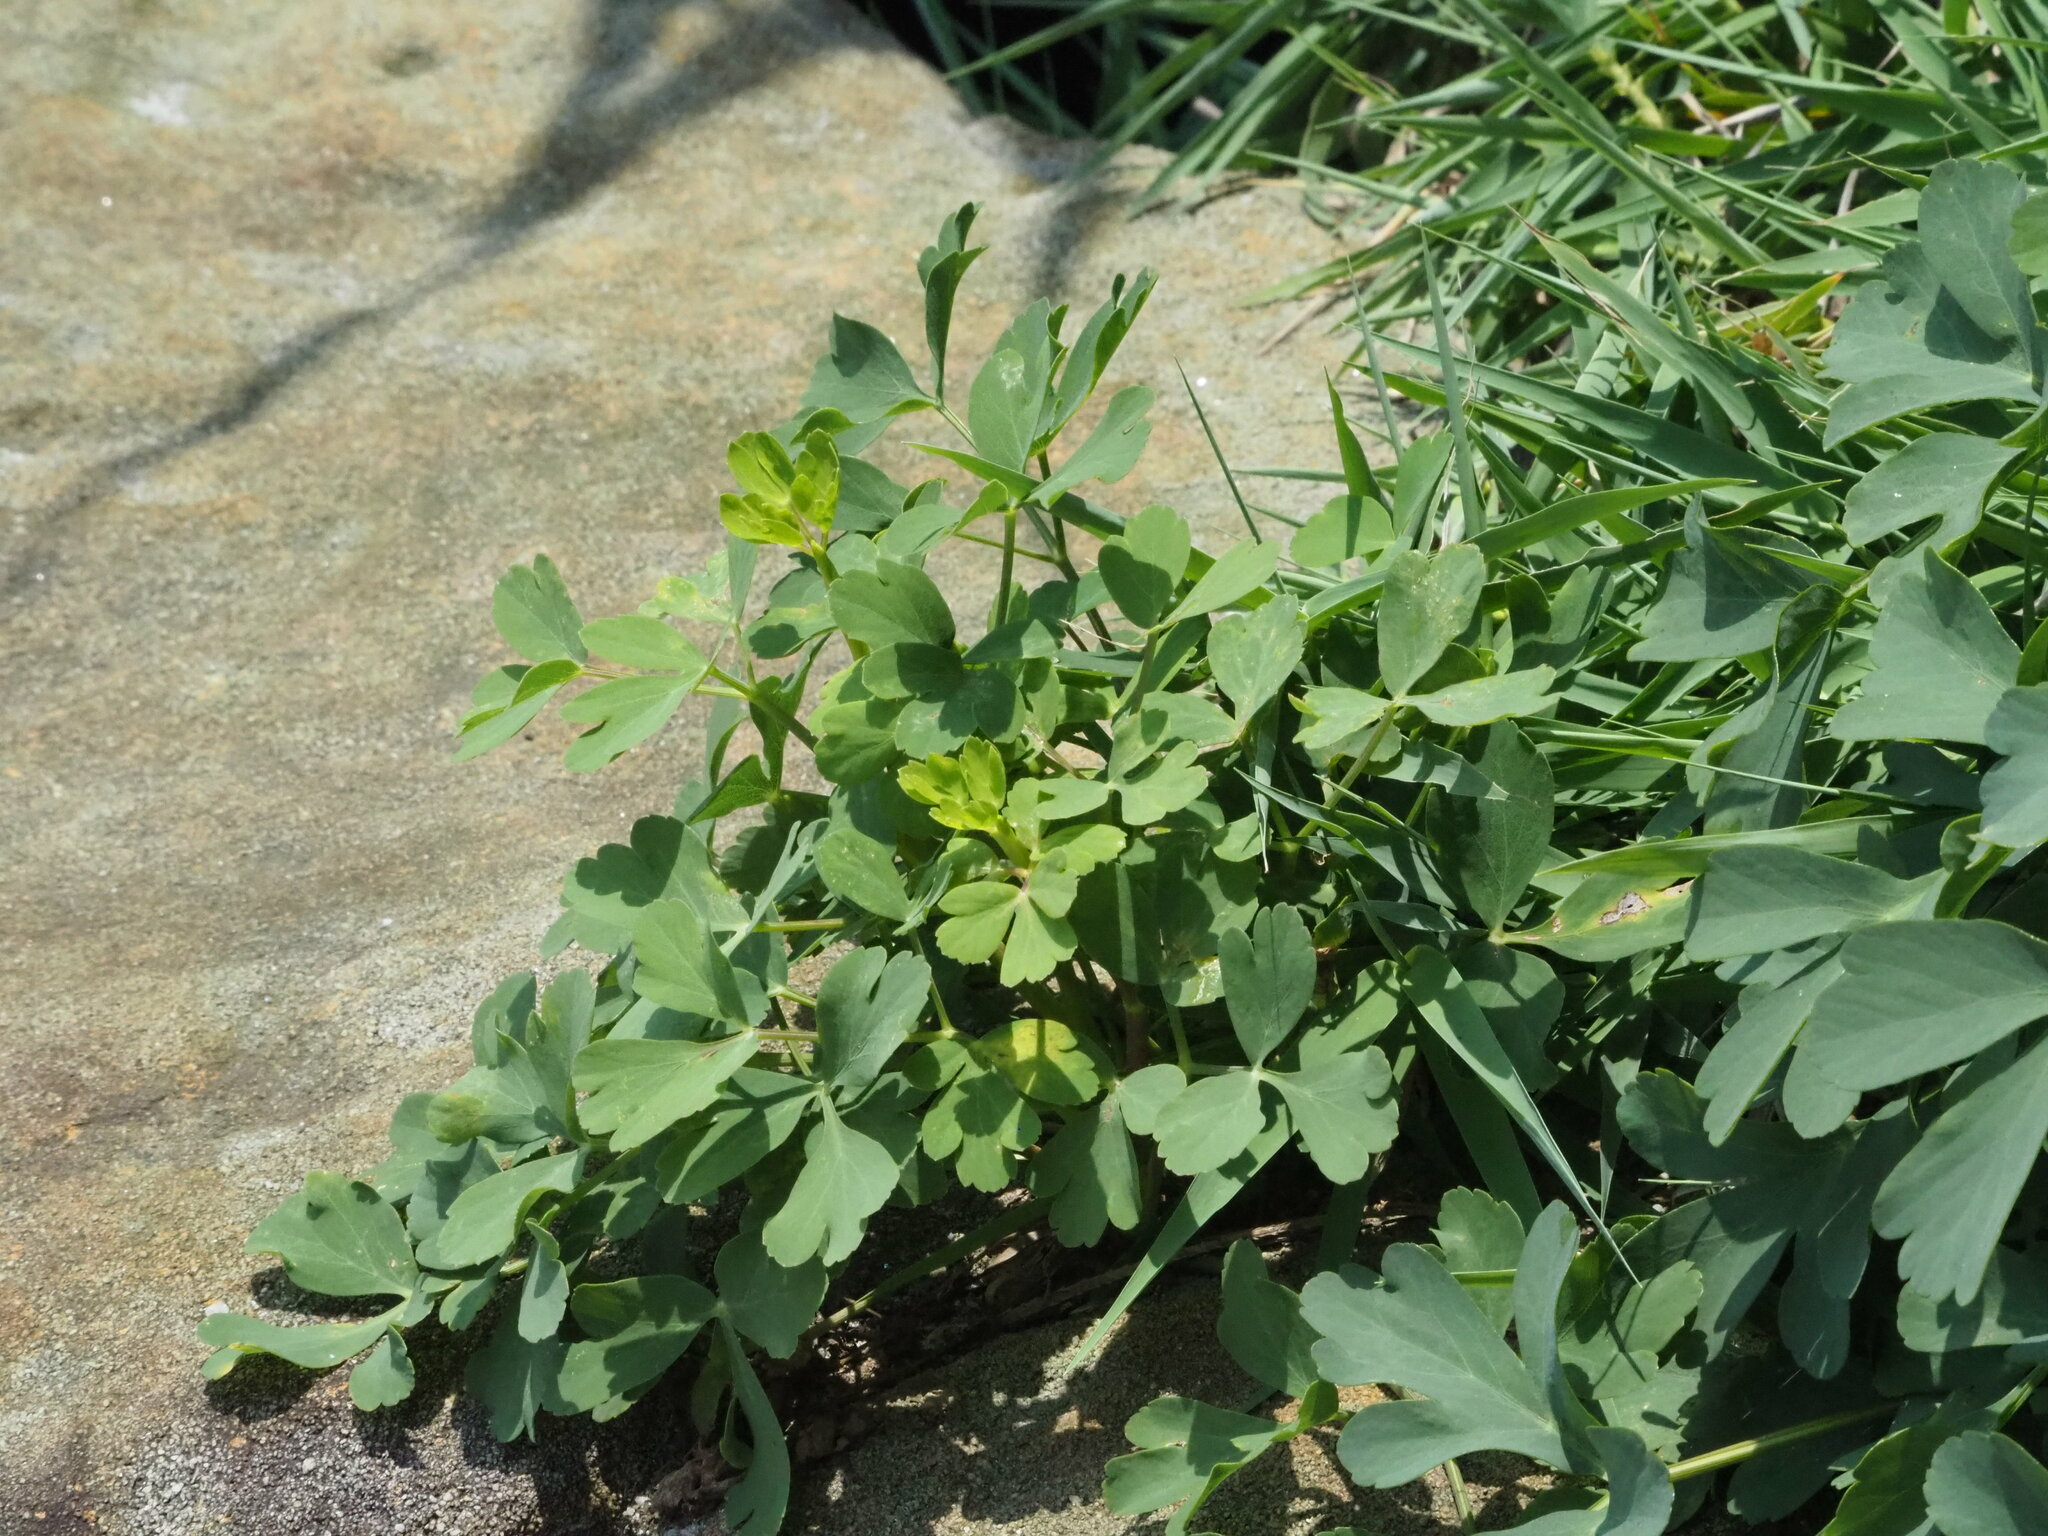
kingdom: Plantae
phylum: Tracheophyta
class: Magnoliopsida
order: Apiales
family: Apiaceae
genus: Peucedanum
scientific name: Peucedanum japonicum
